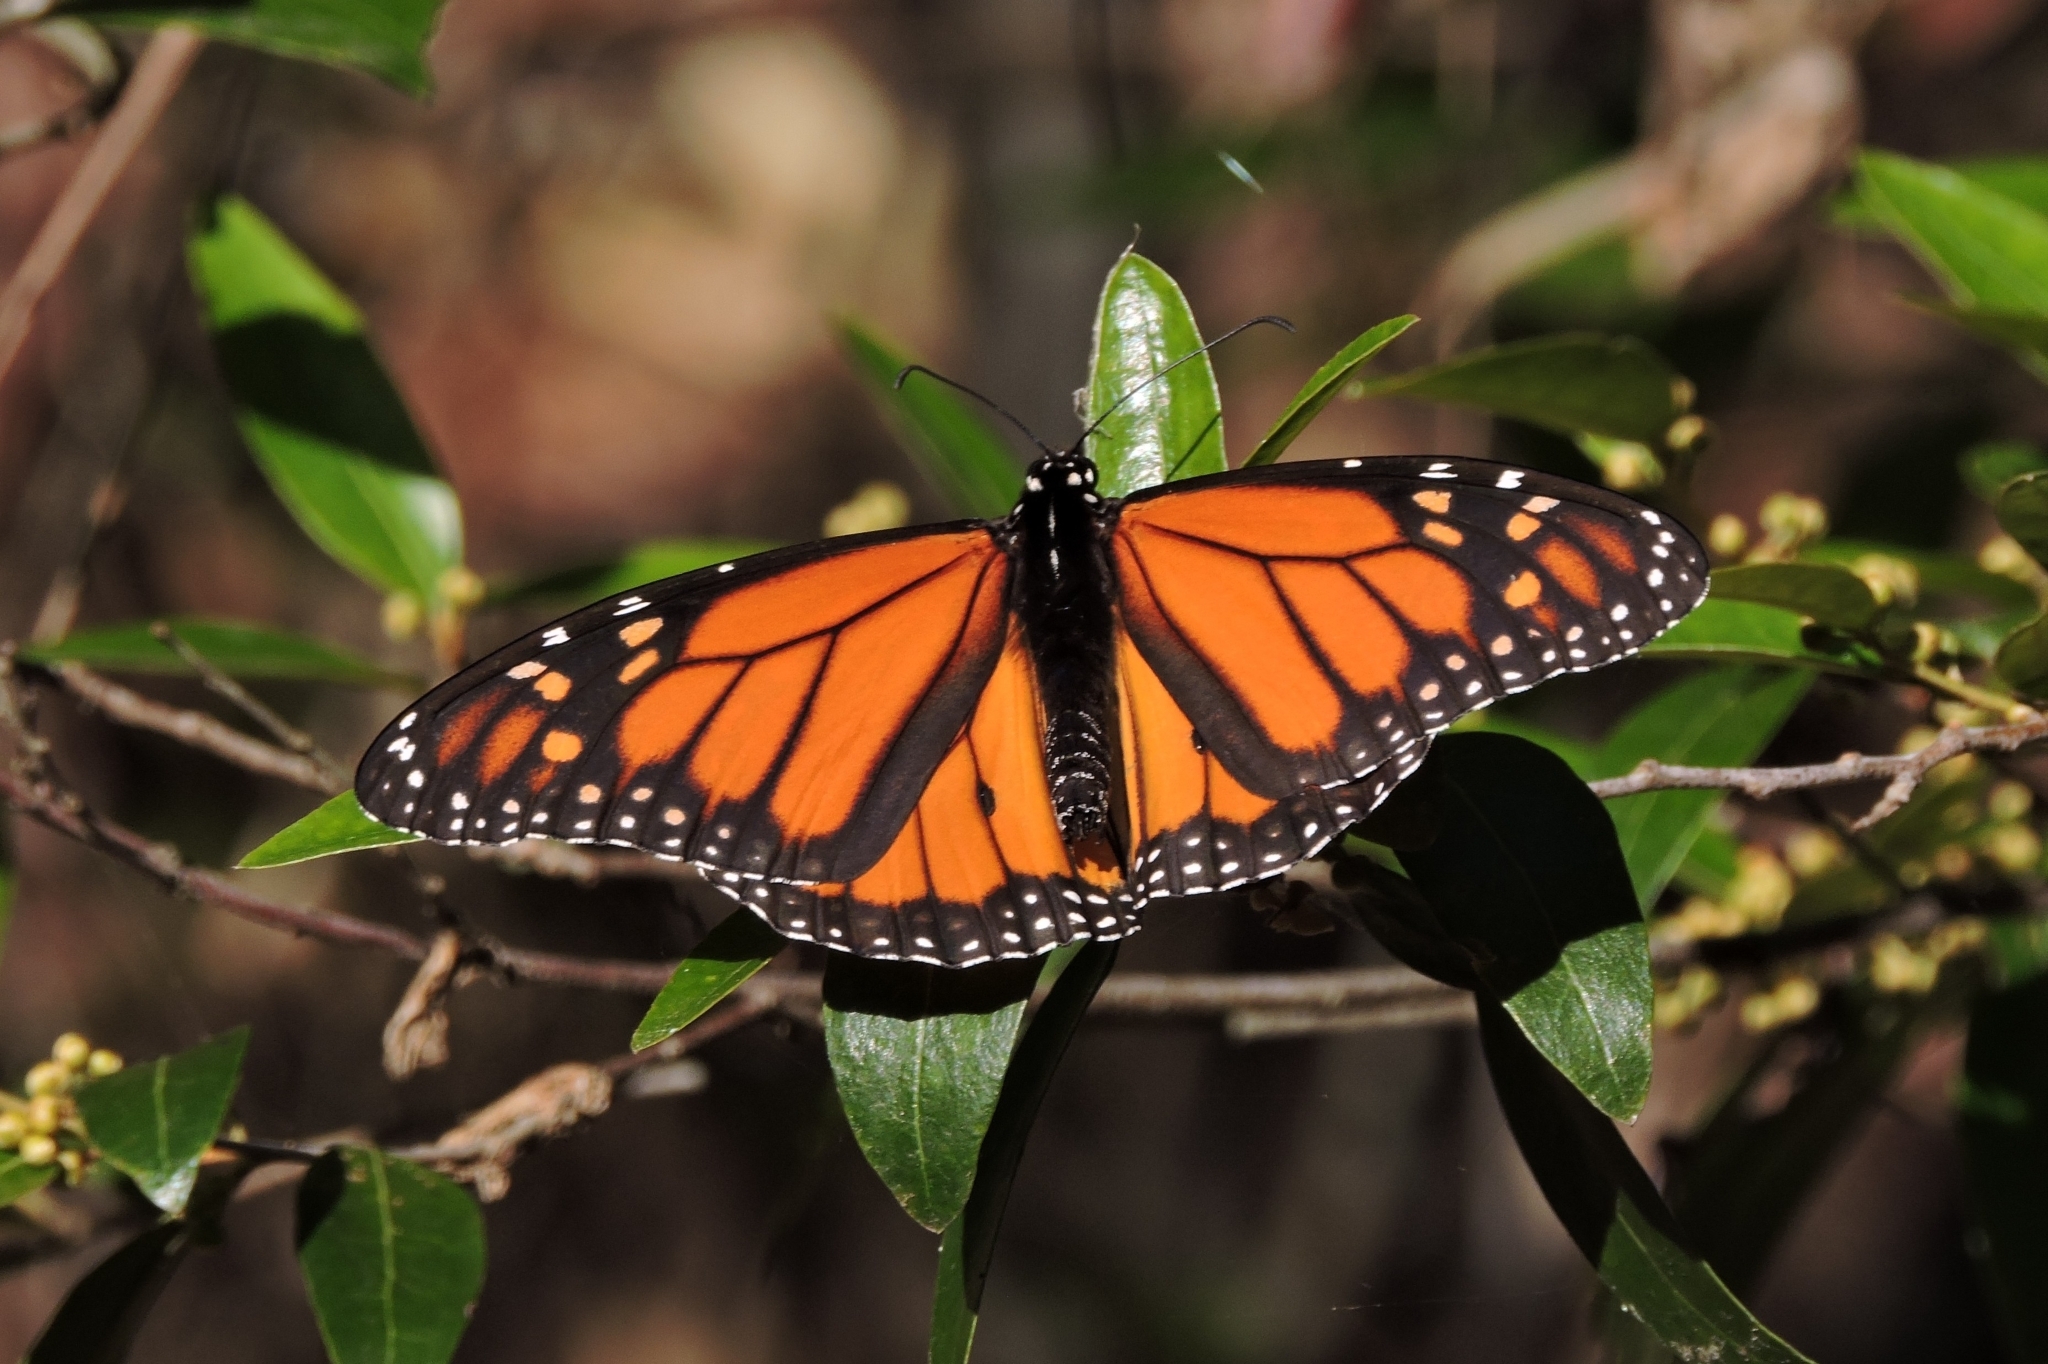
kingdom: Animalia
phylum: Arthropoda
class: Insecta
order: Lepidoptera
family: Nymphalidae
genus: Danaus
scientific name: Danaus plexippus
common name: Monarch
